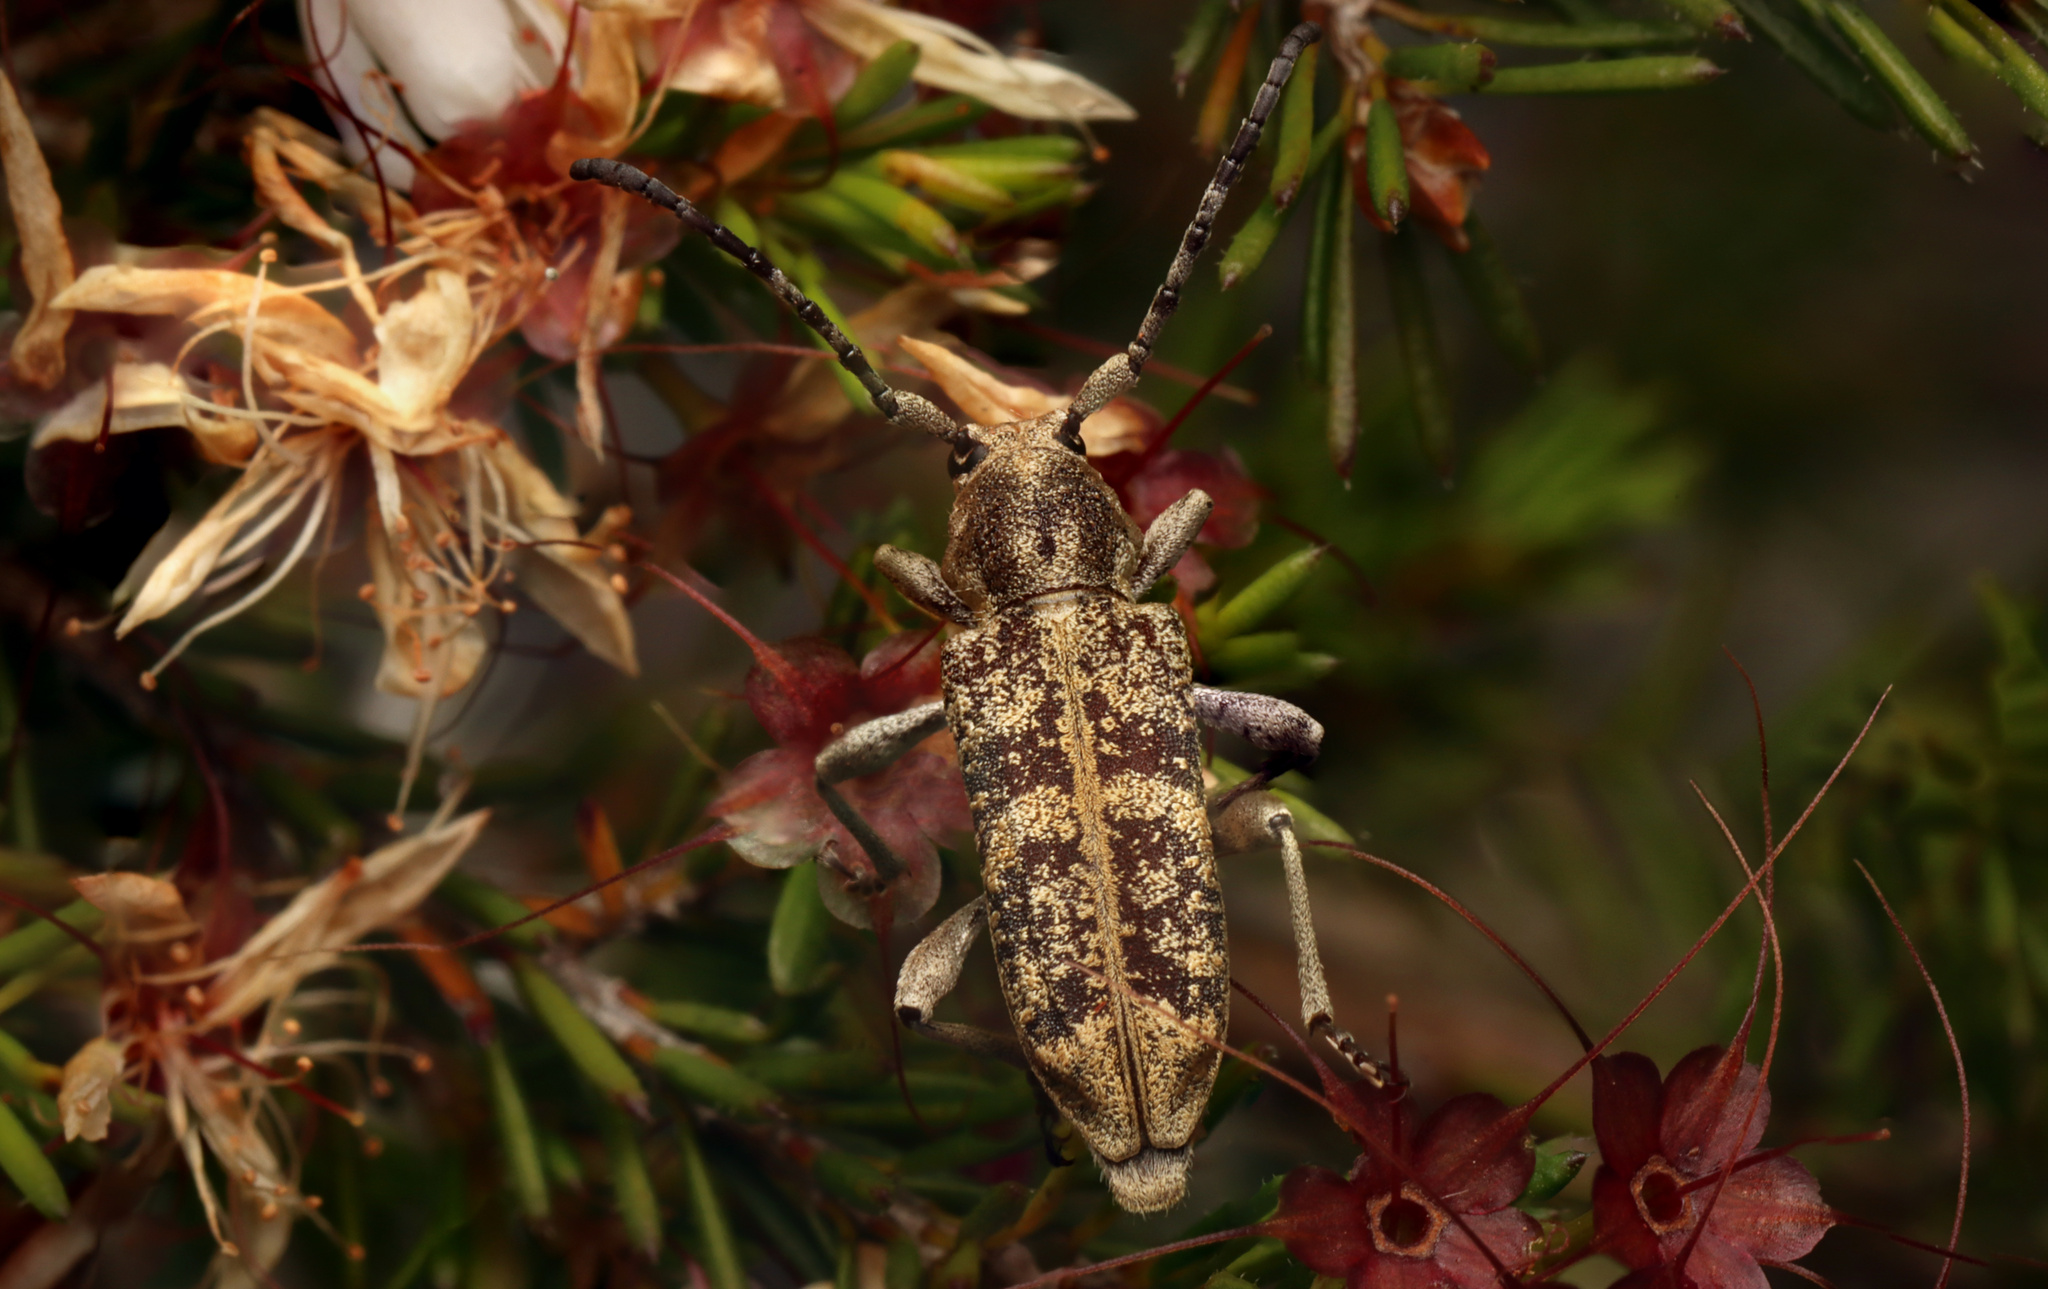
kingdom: Animalia
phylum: Arthropoda
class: Insecta
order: Coleoptera
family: Cerambycidae
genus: Pempsamacra
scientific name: Pempsamacra dispersa
